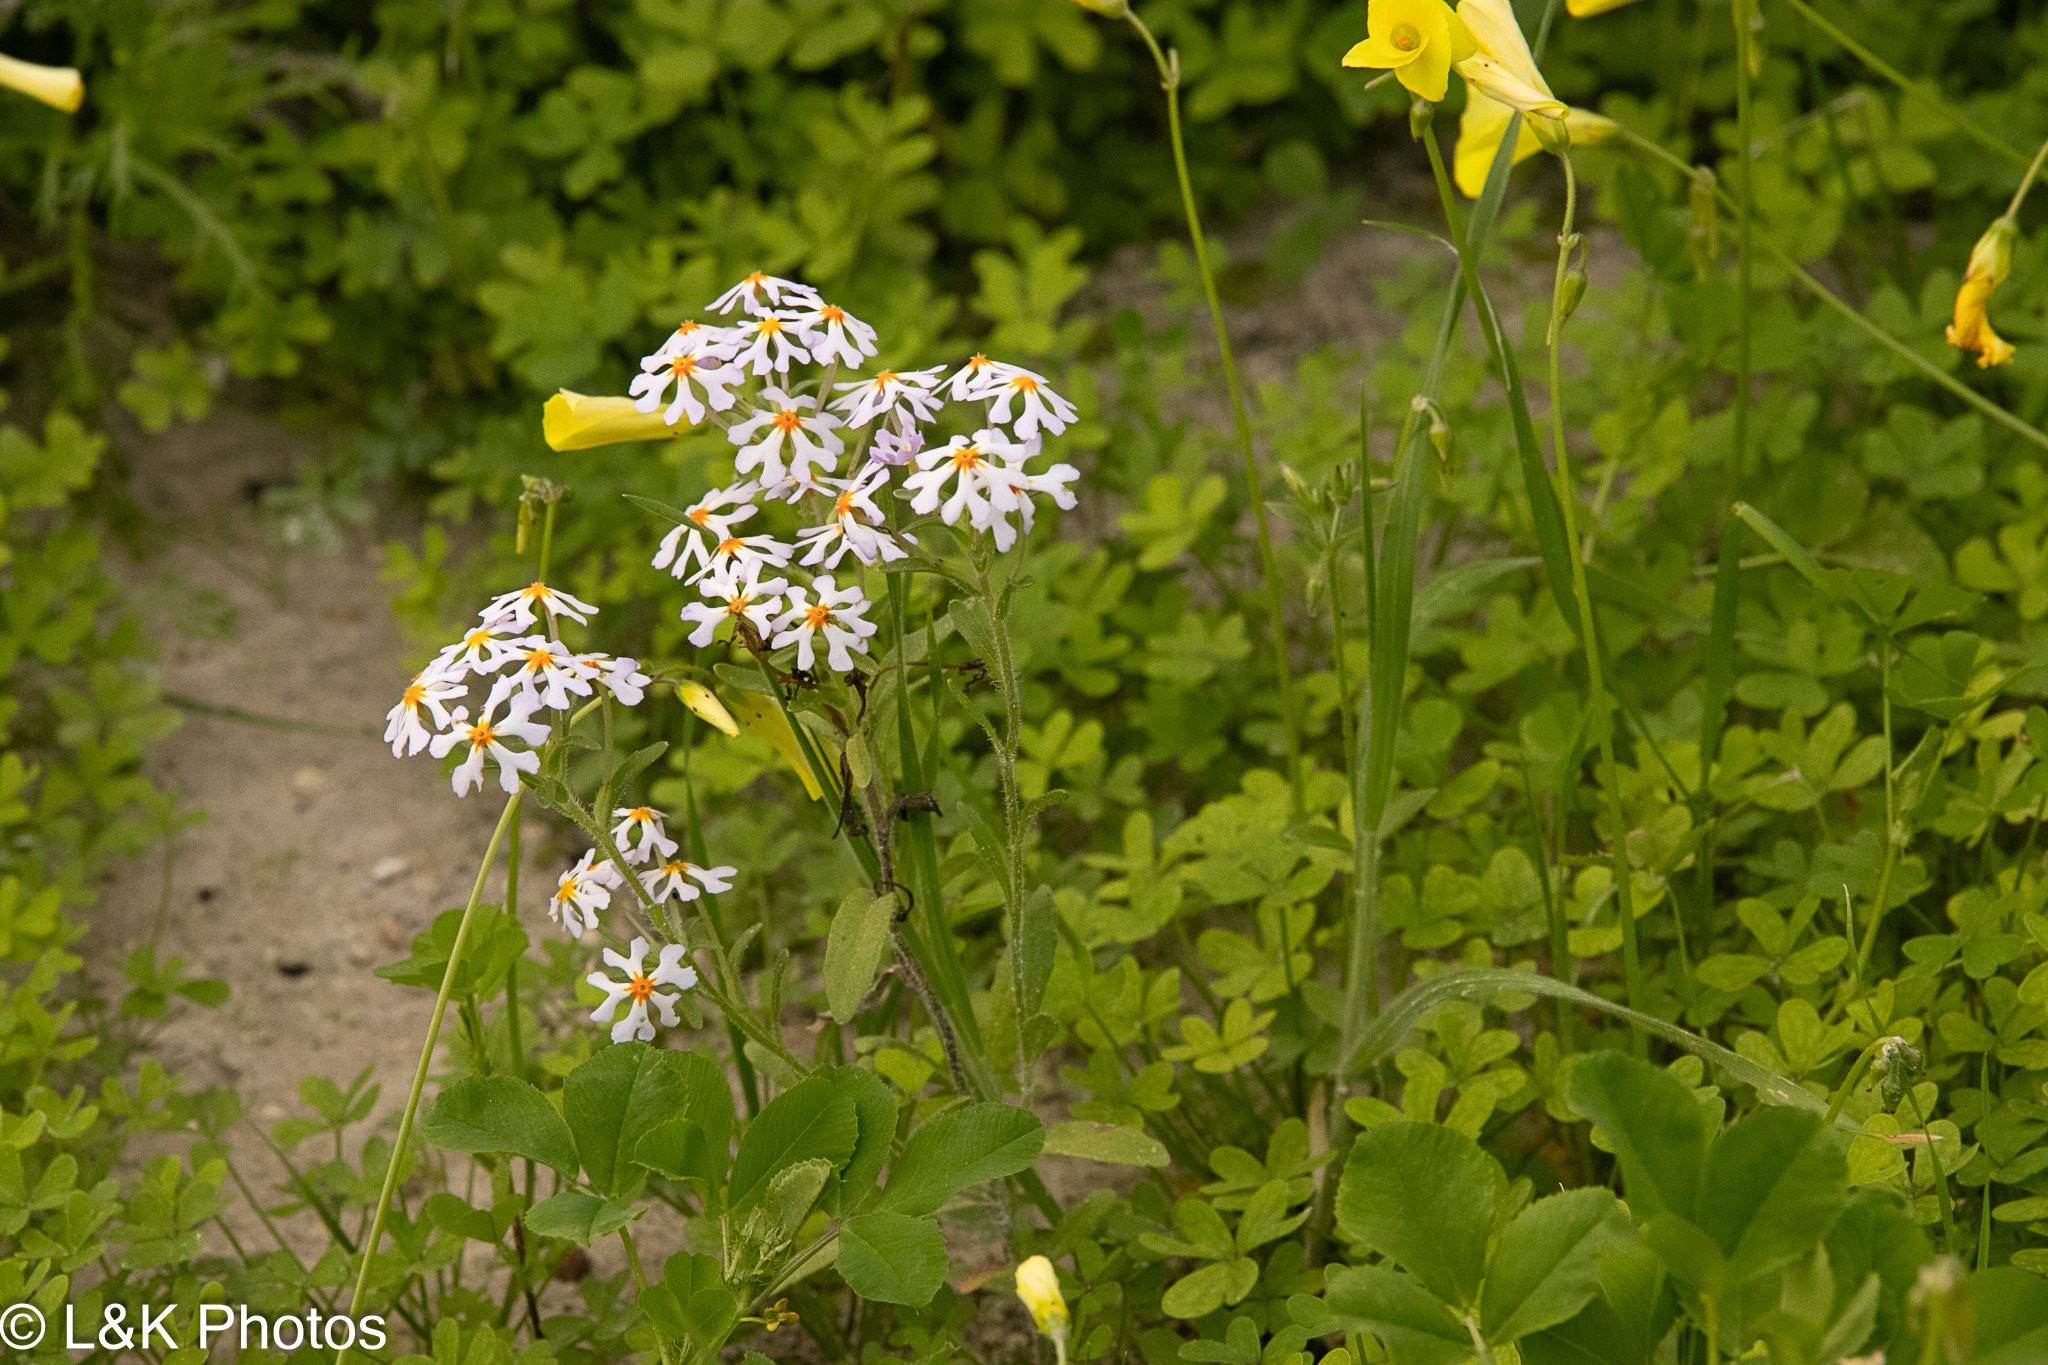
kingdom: Plantae
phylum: Tracheophyta
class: Magnoliopsida
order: Lamiales
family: Scrophulariaceae
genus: Zaluzianskya
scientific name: Zaluzianskya villosa
